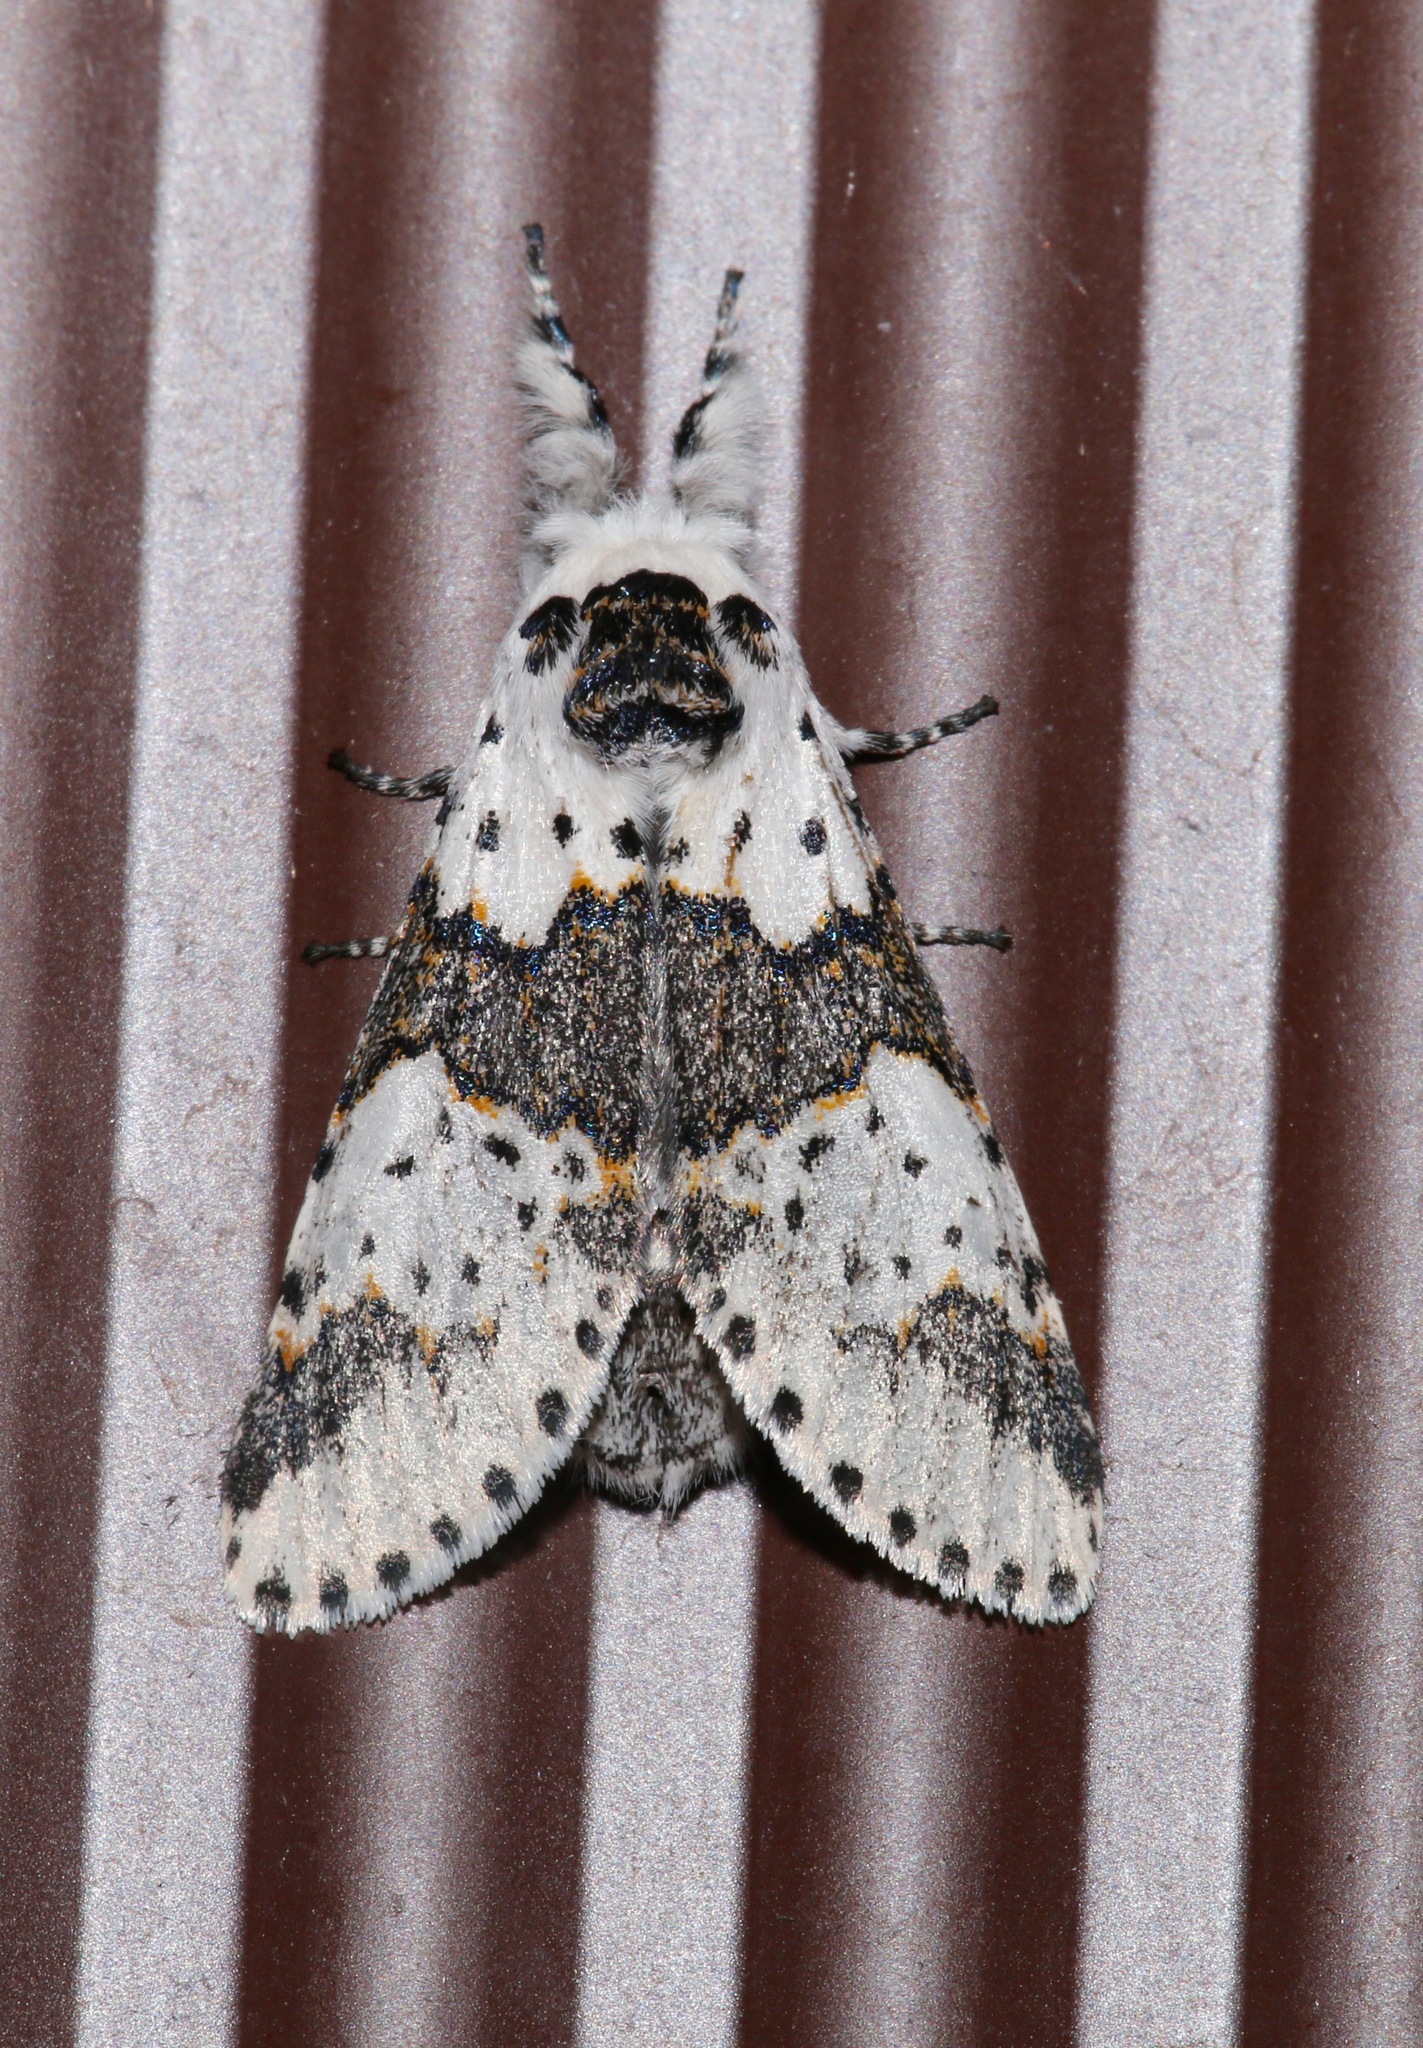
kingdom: Animalia
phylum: Arthropoda
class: Insecta
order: Lepidoptera
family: Notodontidae
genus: Furcula
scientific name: Furcula borealis
